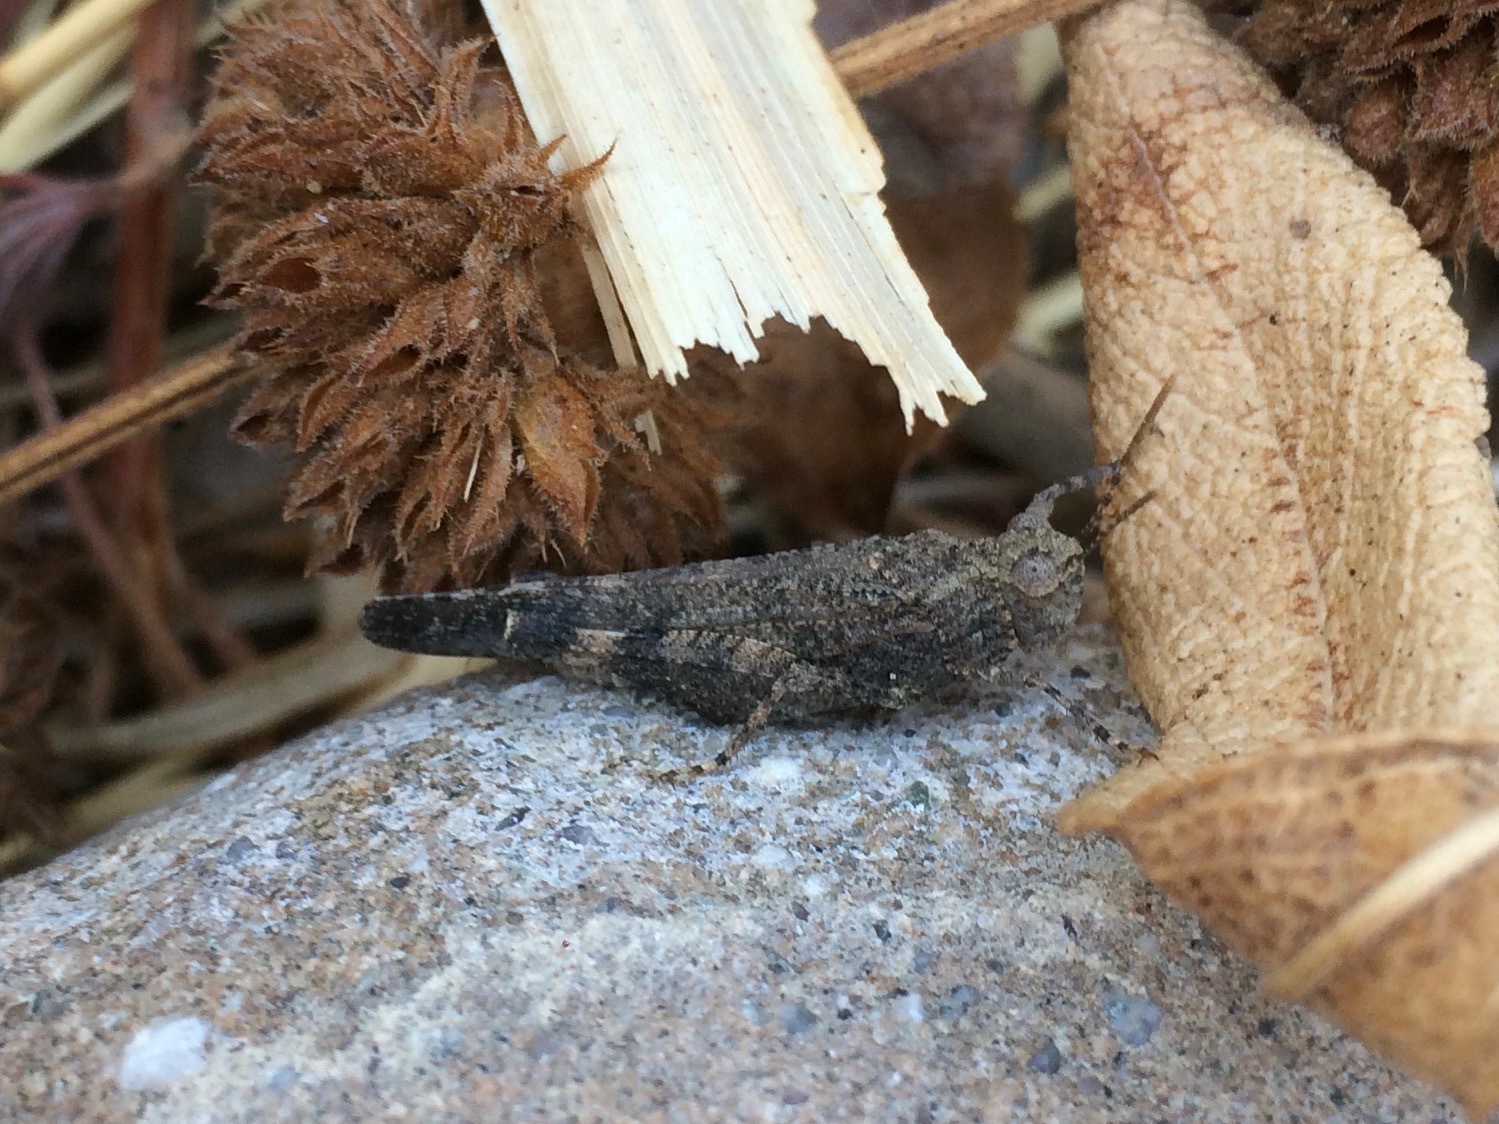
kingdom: Animalia
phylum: Arthropoda
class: Insecta
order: Orthoptera
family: Acrididae
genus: Lactista
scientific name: Lactista gibbosus
